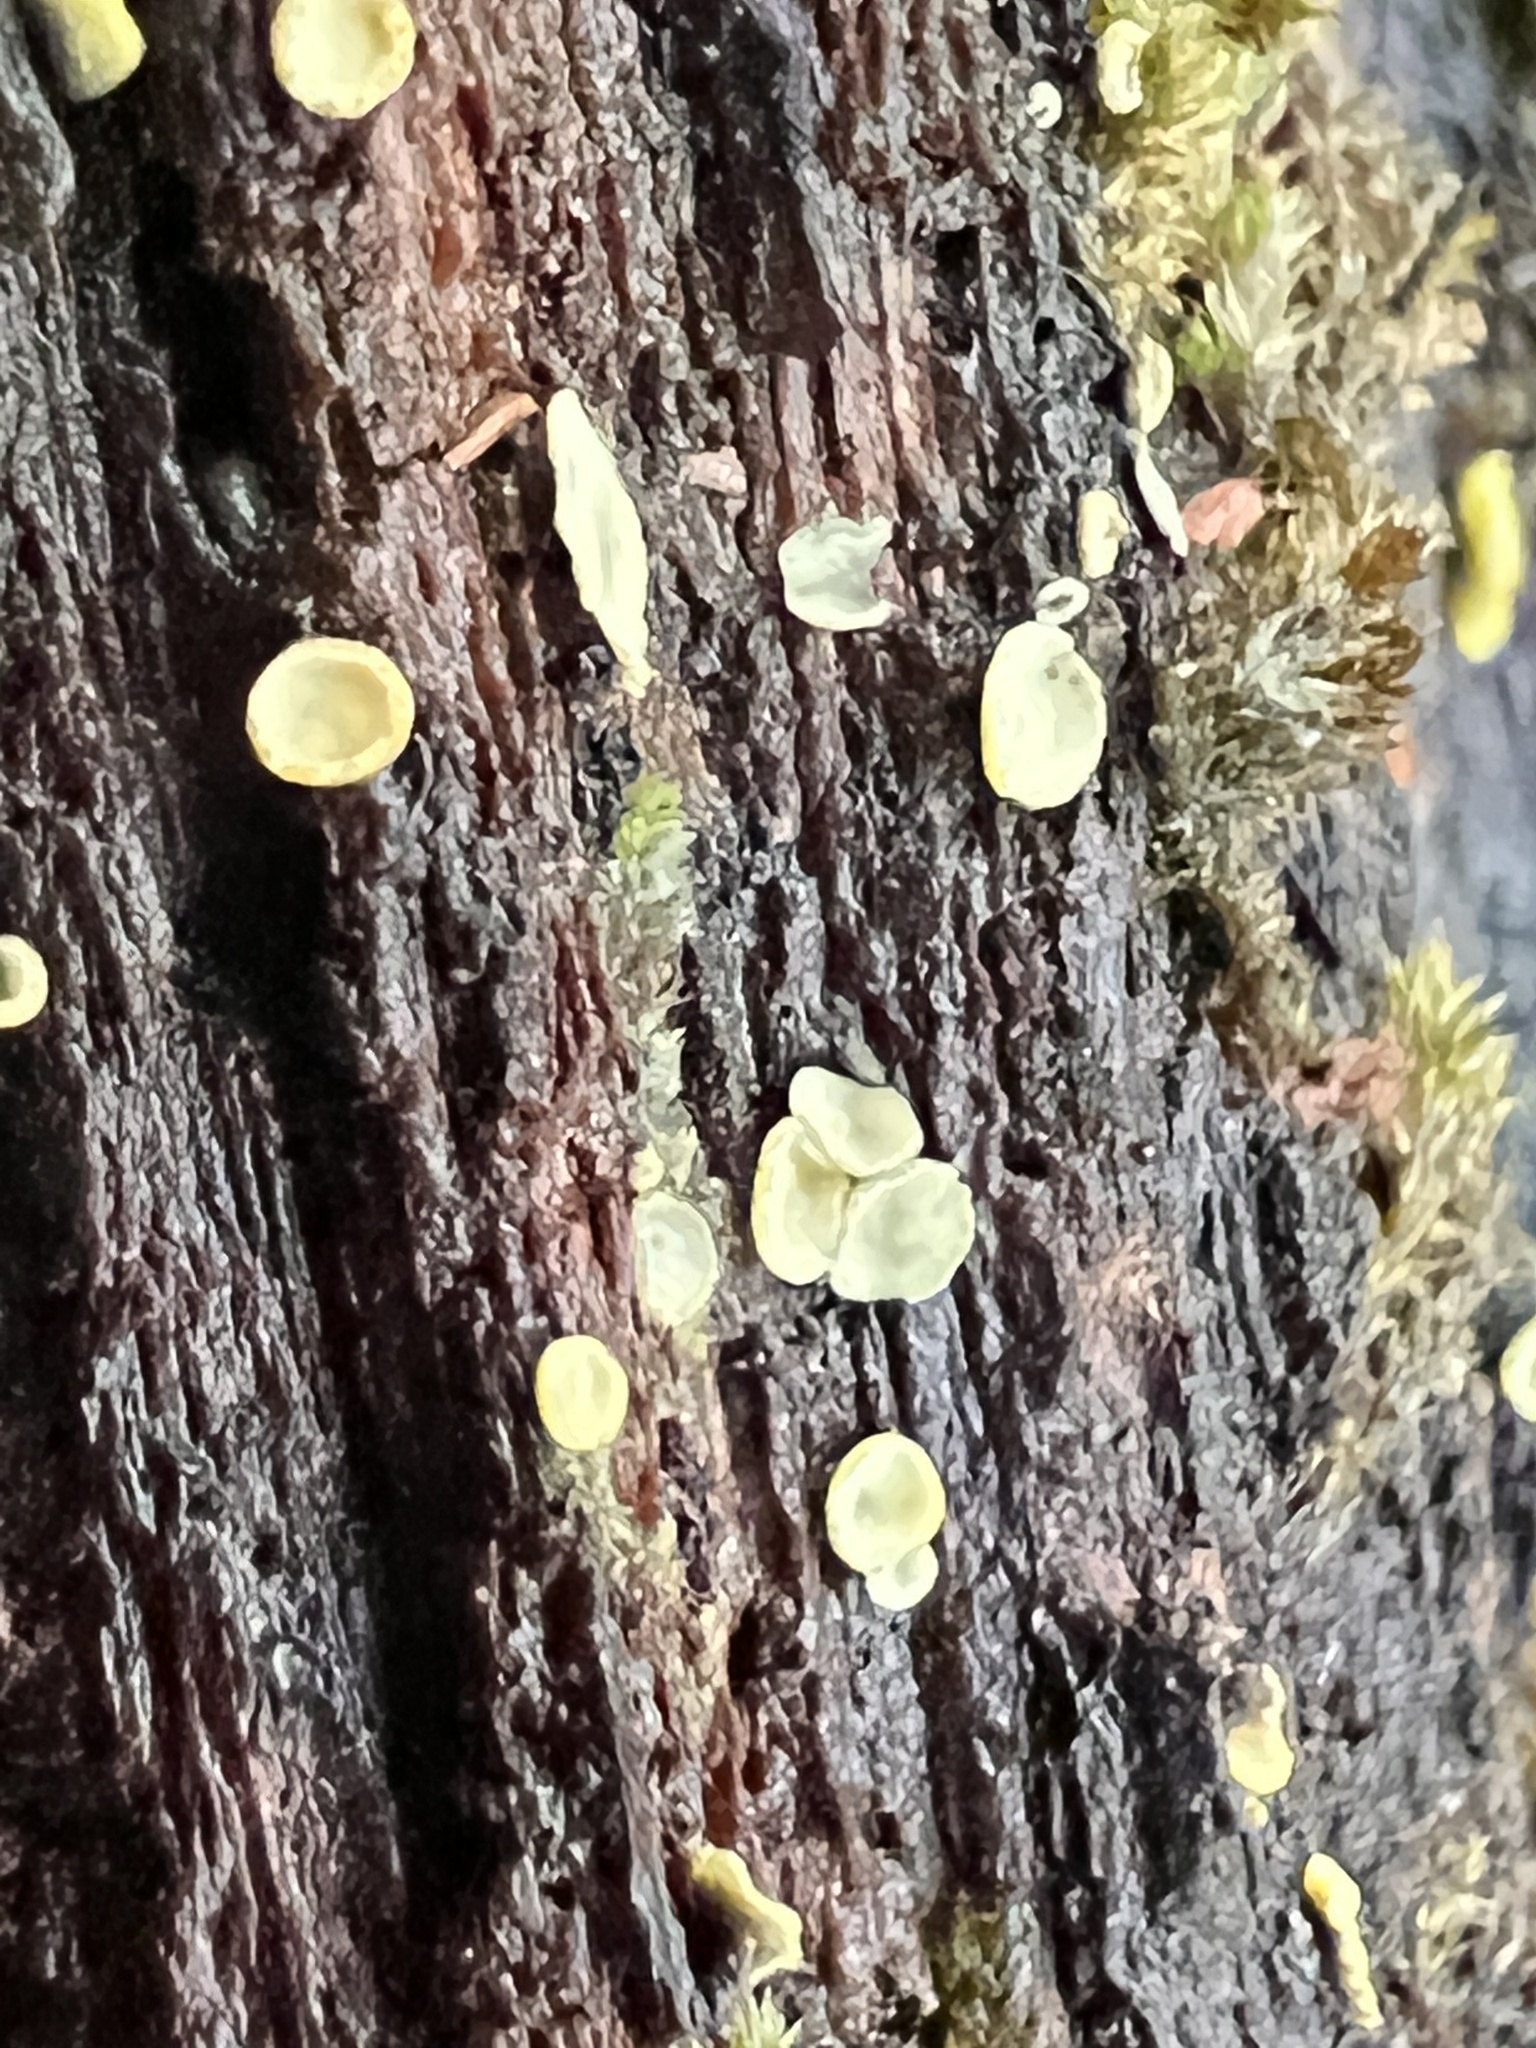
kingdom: Fungi
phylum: Ascomycota
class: Leotiomycetes
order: Helotiales
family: Chlorospleniaceae
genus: Chlorosplenium
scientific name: Chlorosplenium chlora
